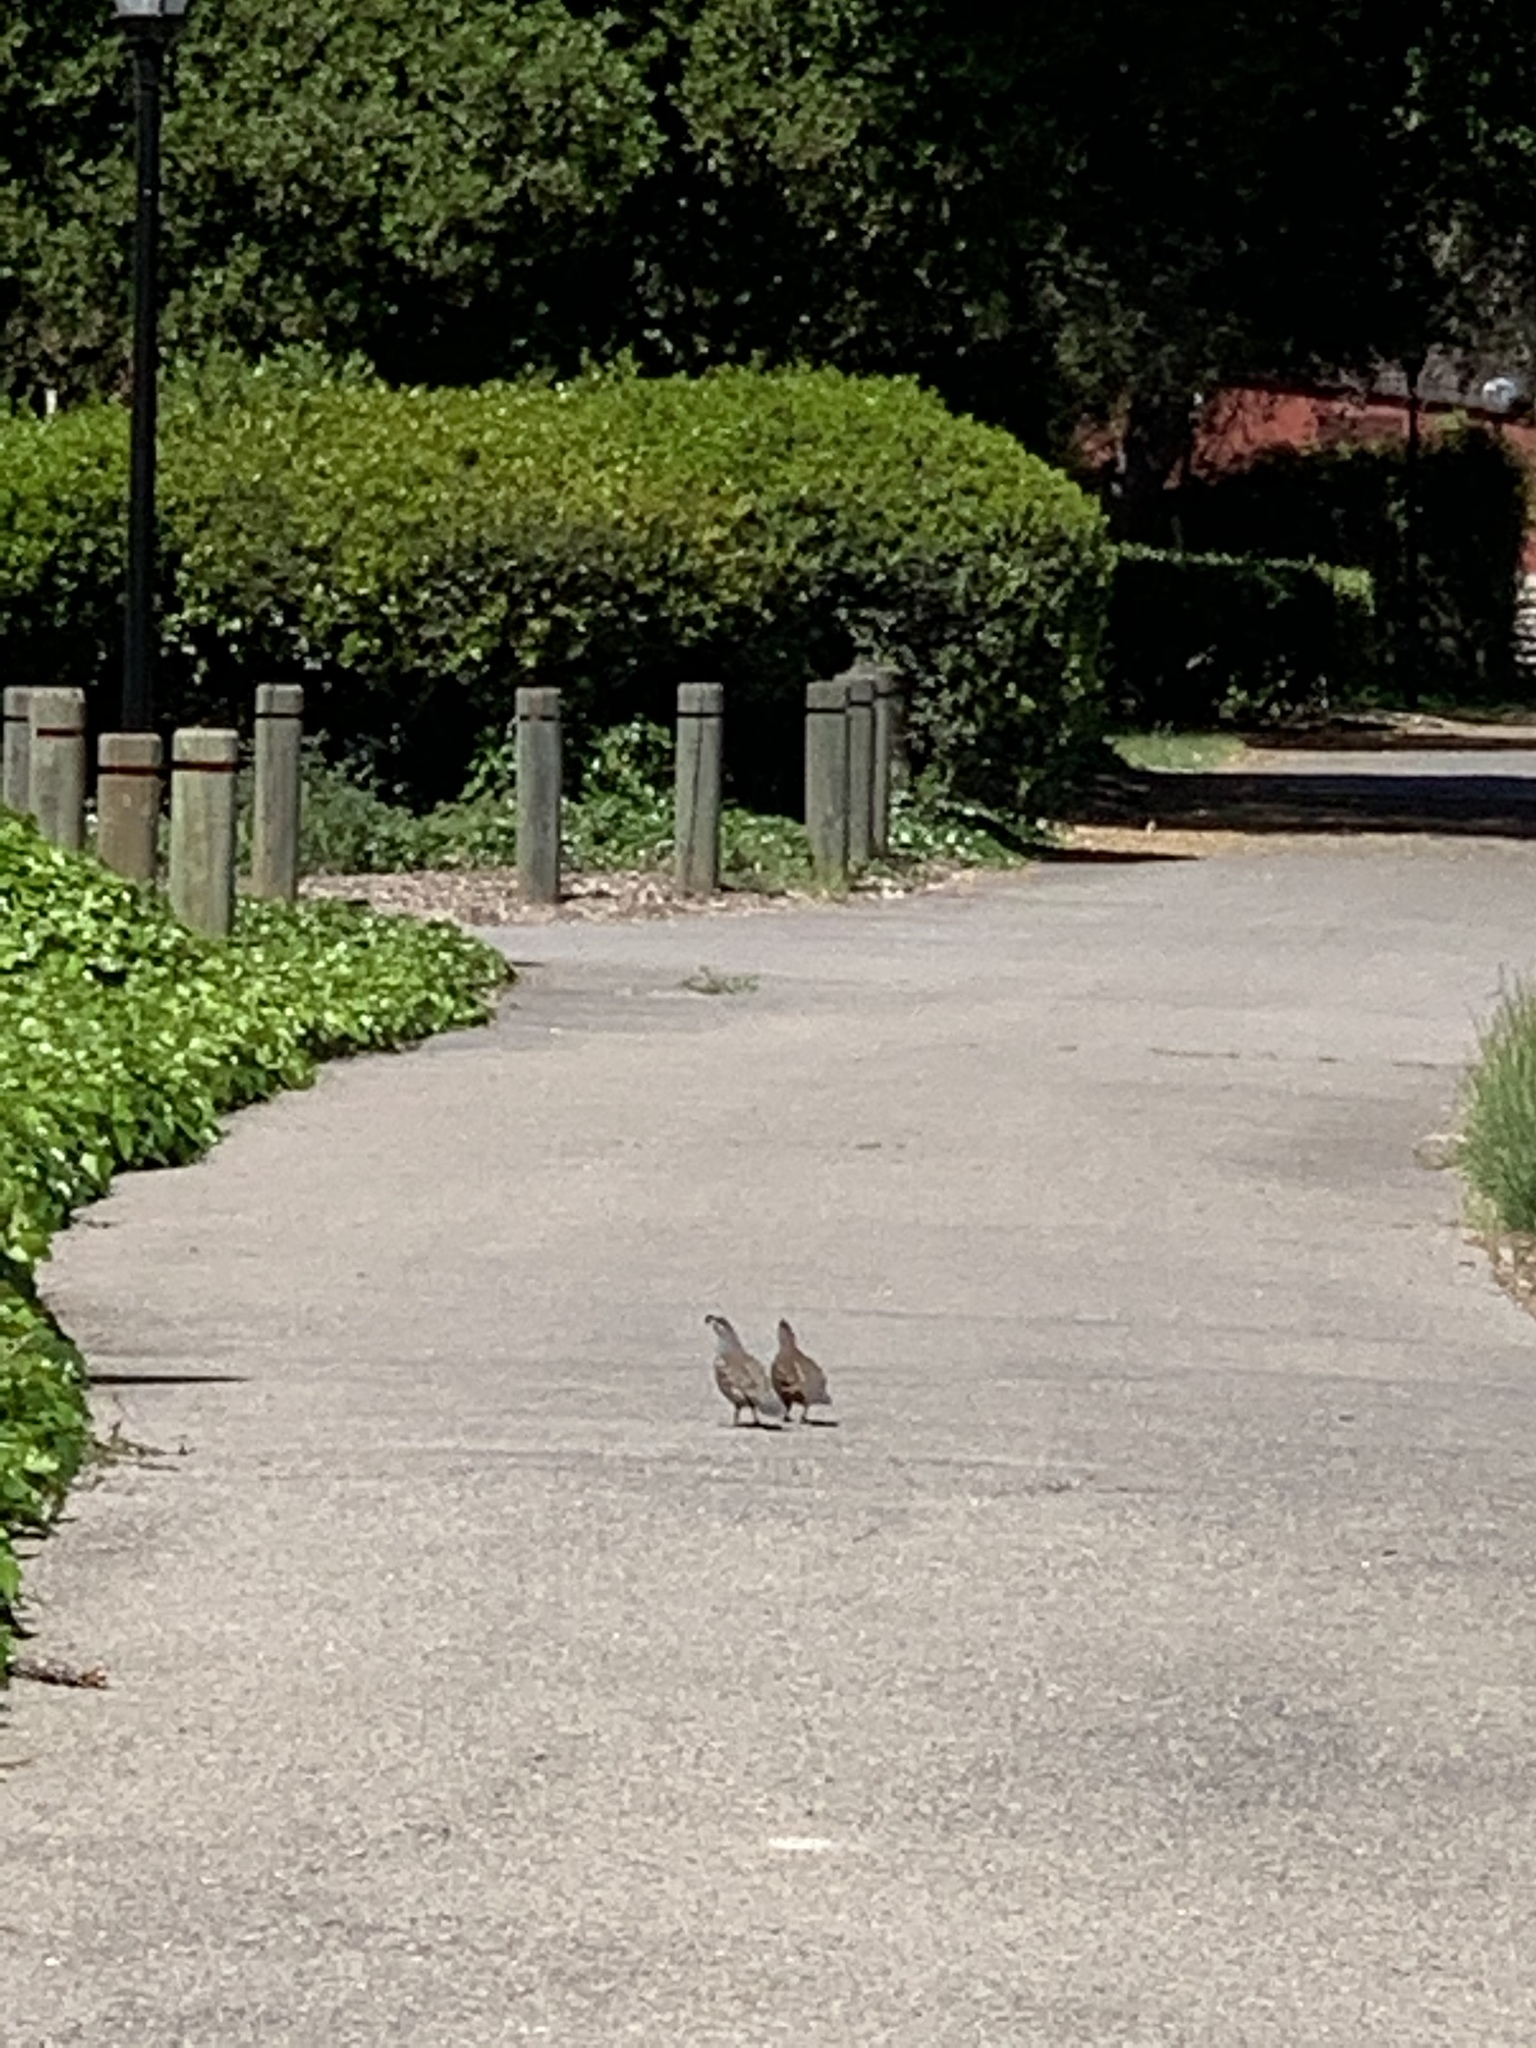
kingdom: Animalia
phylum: Chordata
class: Aves
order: Galliformes
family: Odontophoridae
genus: Callipepla
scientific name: Callipepla californica
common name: California quail
